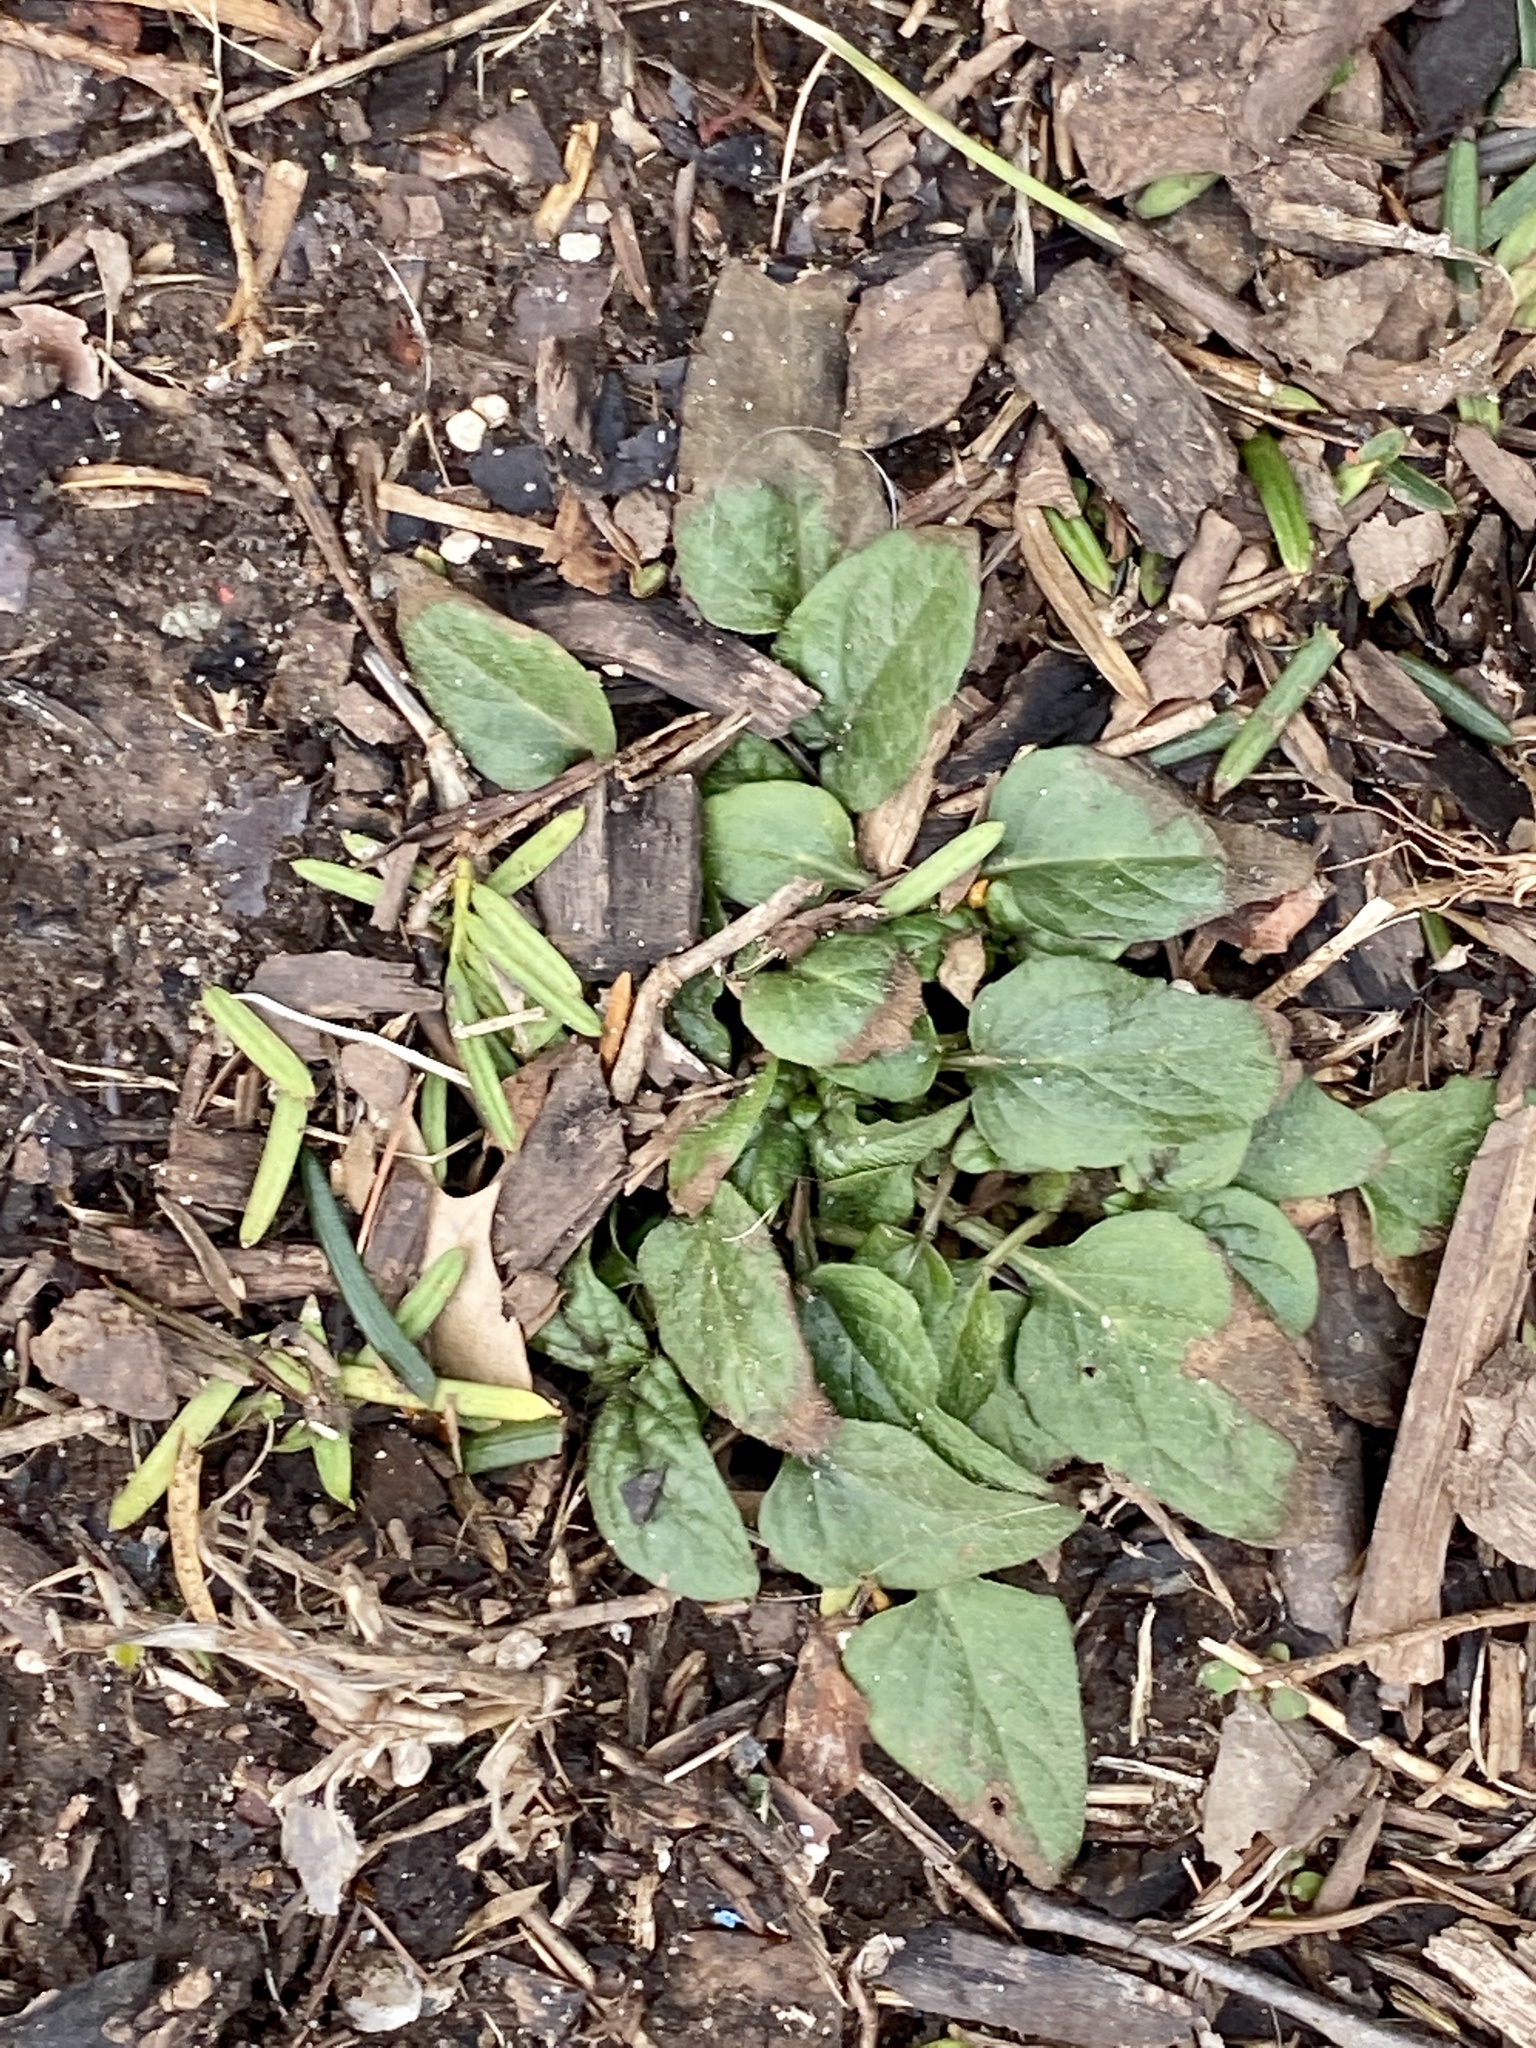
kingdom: Plantae
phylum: Tracheophyta
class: Magnoliopsida
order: Lamiales
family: Lamiaceae
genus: Prunella
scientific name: Prunella vulgaris
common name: Heal-all
